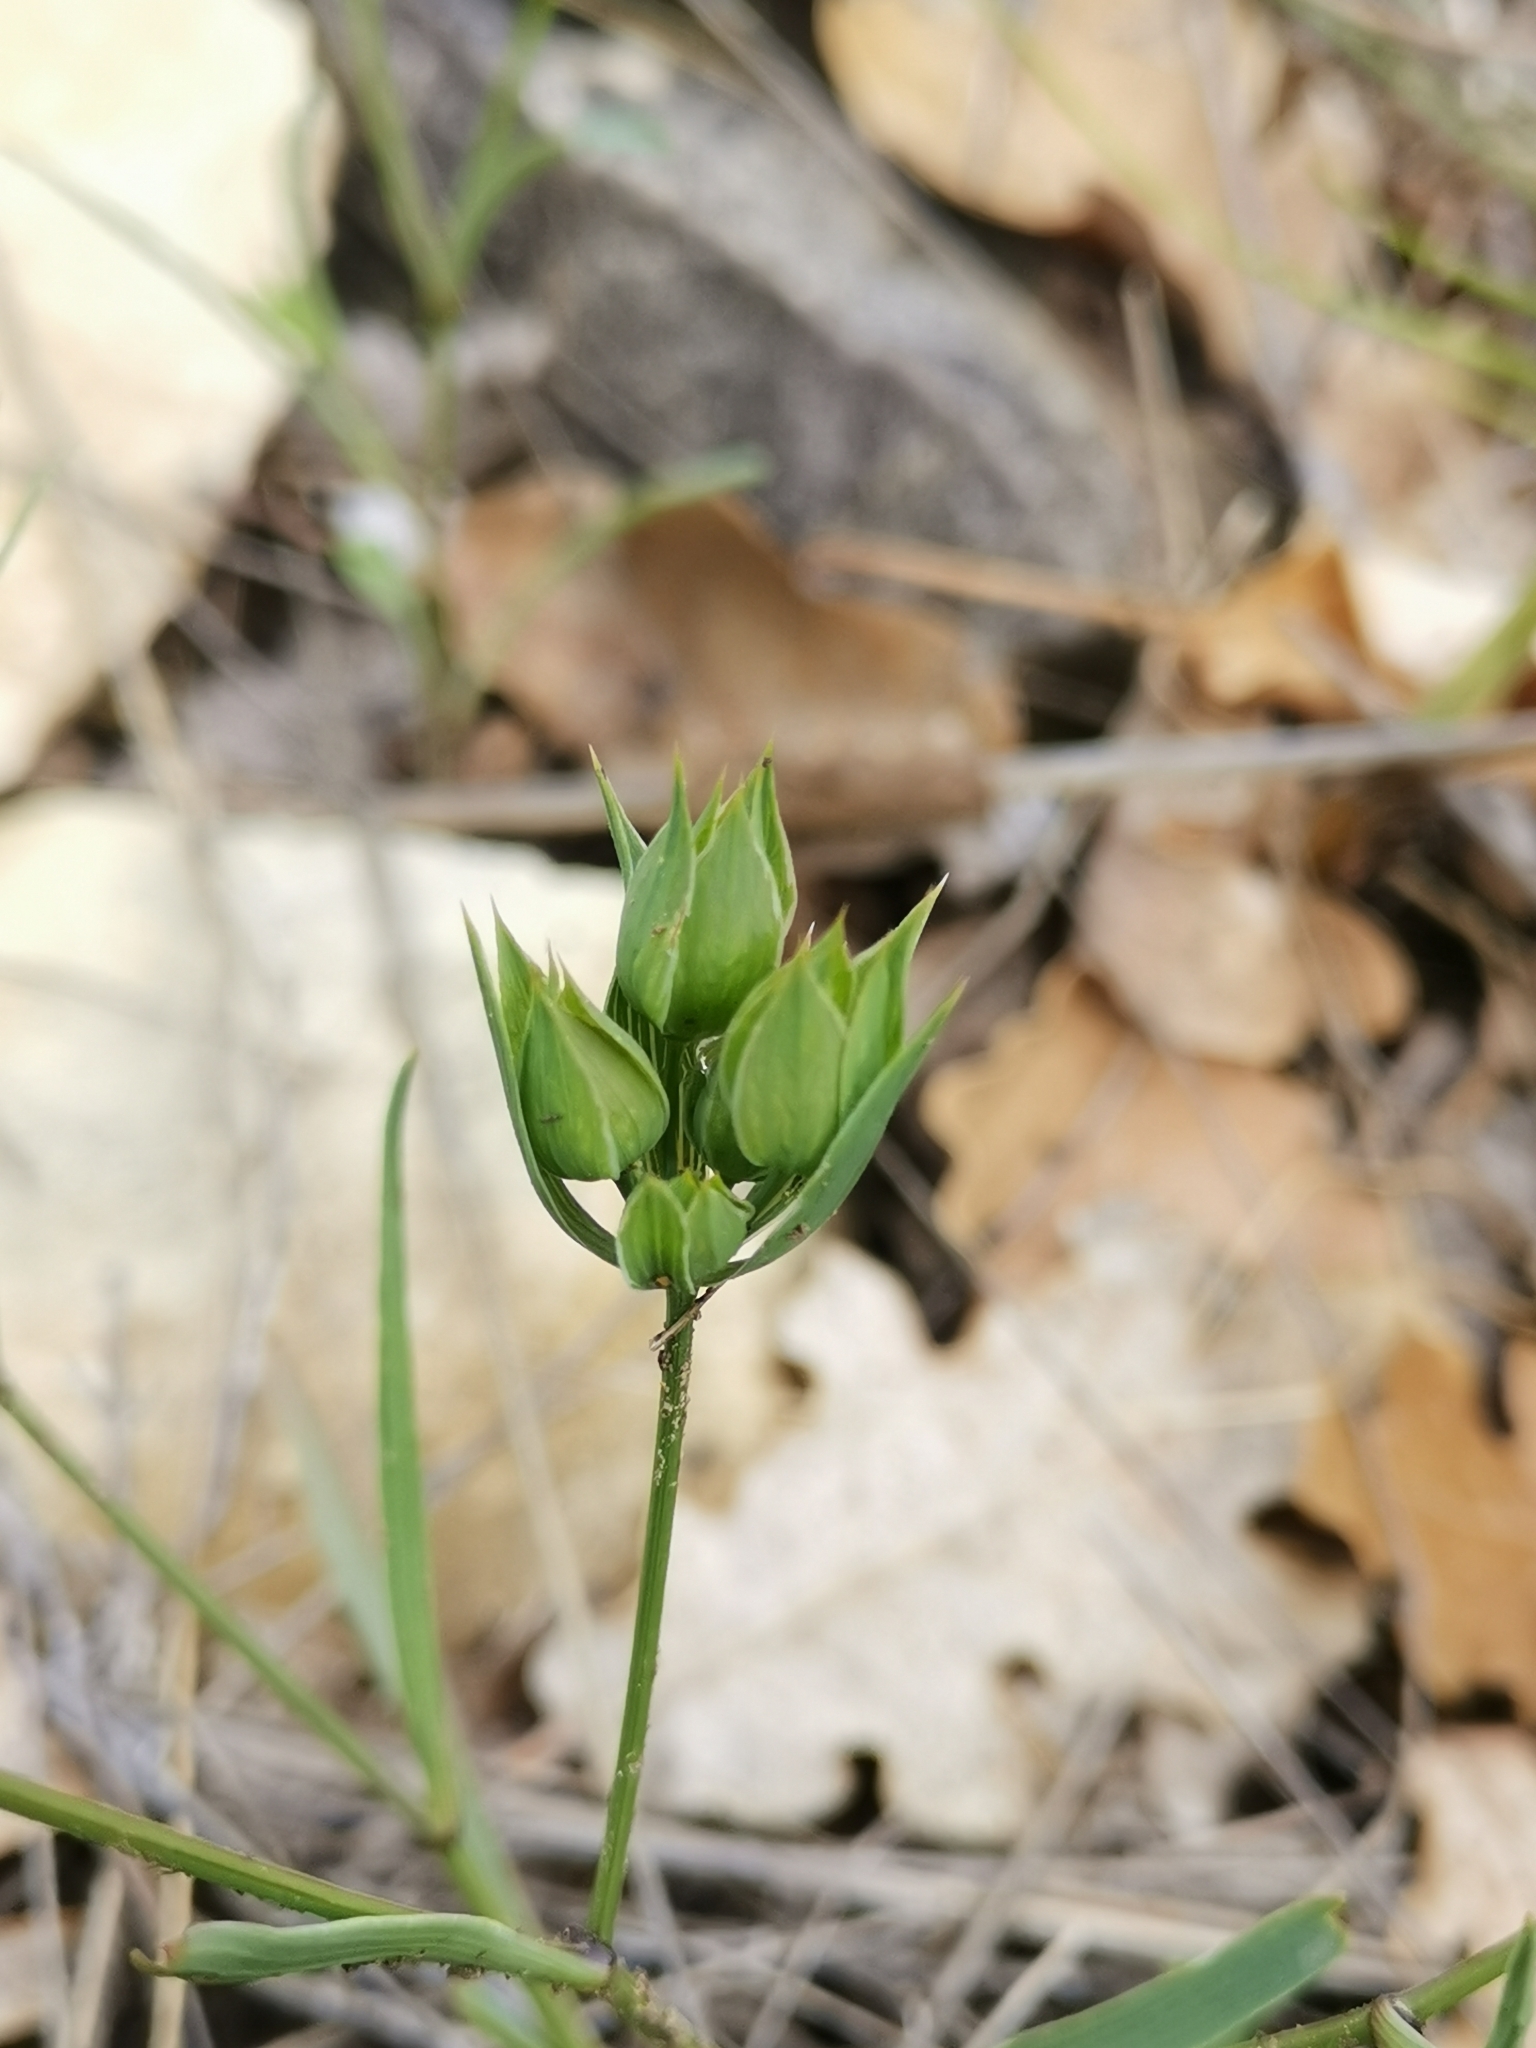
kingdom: Plantae
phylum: Tracheophyta
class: Magnoliopsida
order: Apiales
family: Apiaceae
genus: Bupleurum
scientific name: Bupleurum baldense
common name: Small hare's-ear
